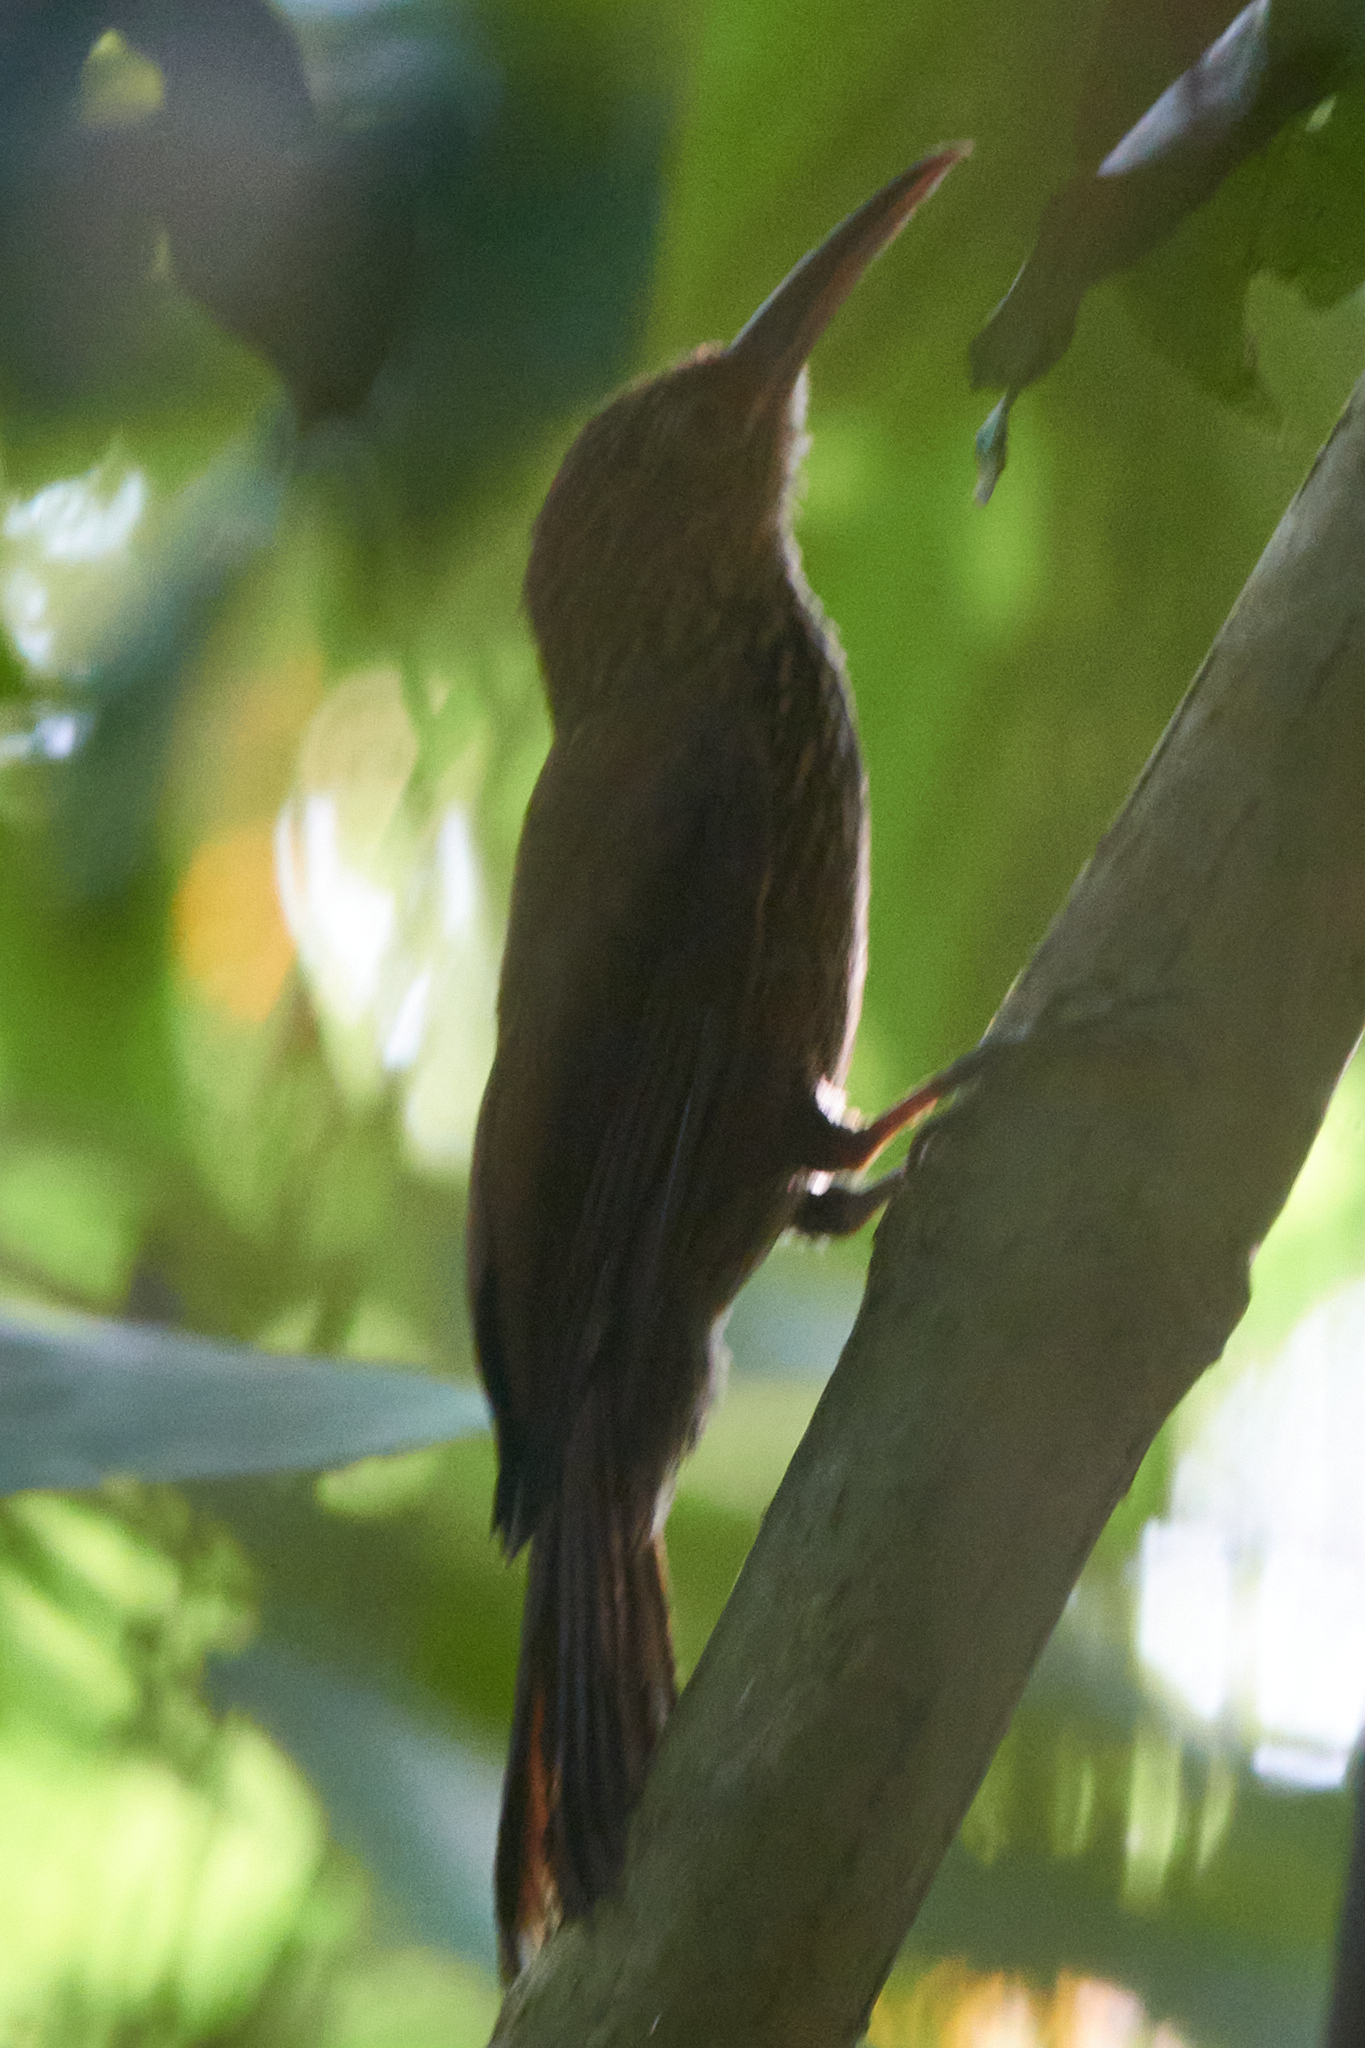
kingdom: Animalia
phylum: Chordata
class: Aves
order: Passeriformes
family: Furnariidae
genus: Xiphorhynchus
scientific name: Xiphorhynchus susurrans
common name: Cocoa woodcreeper
